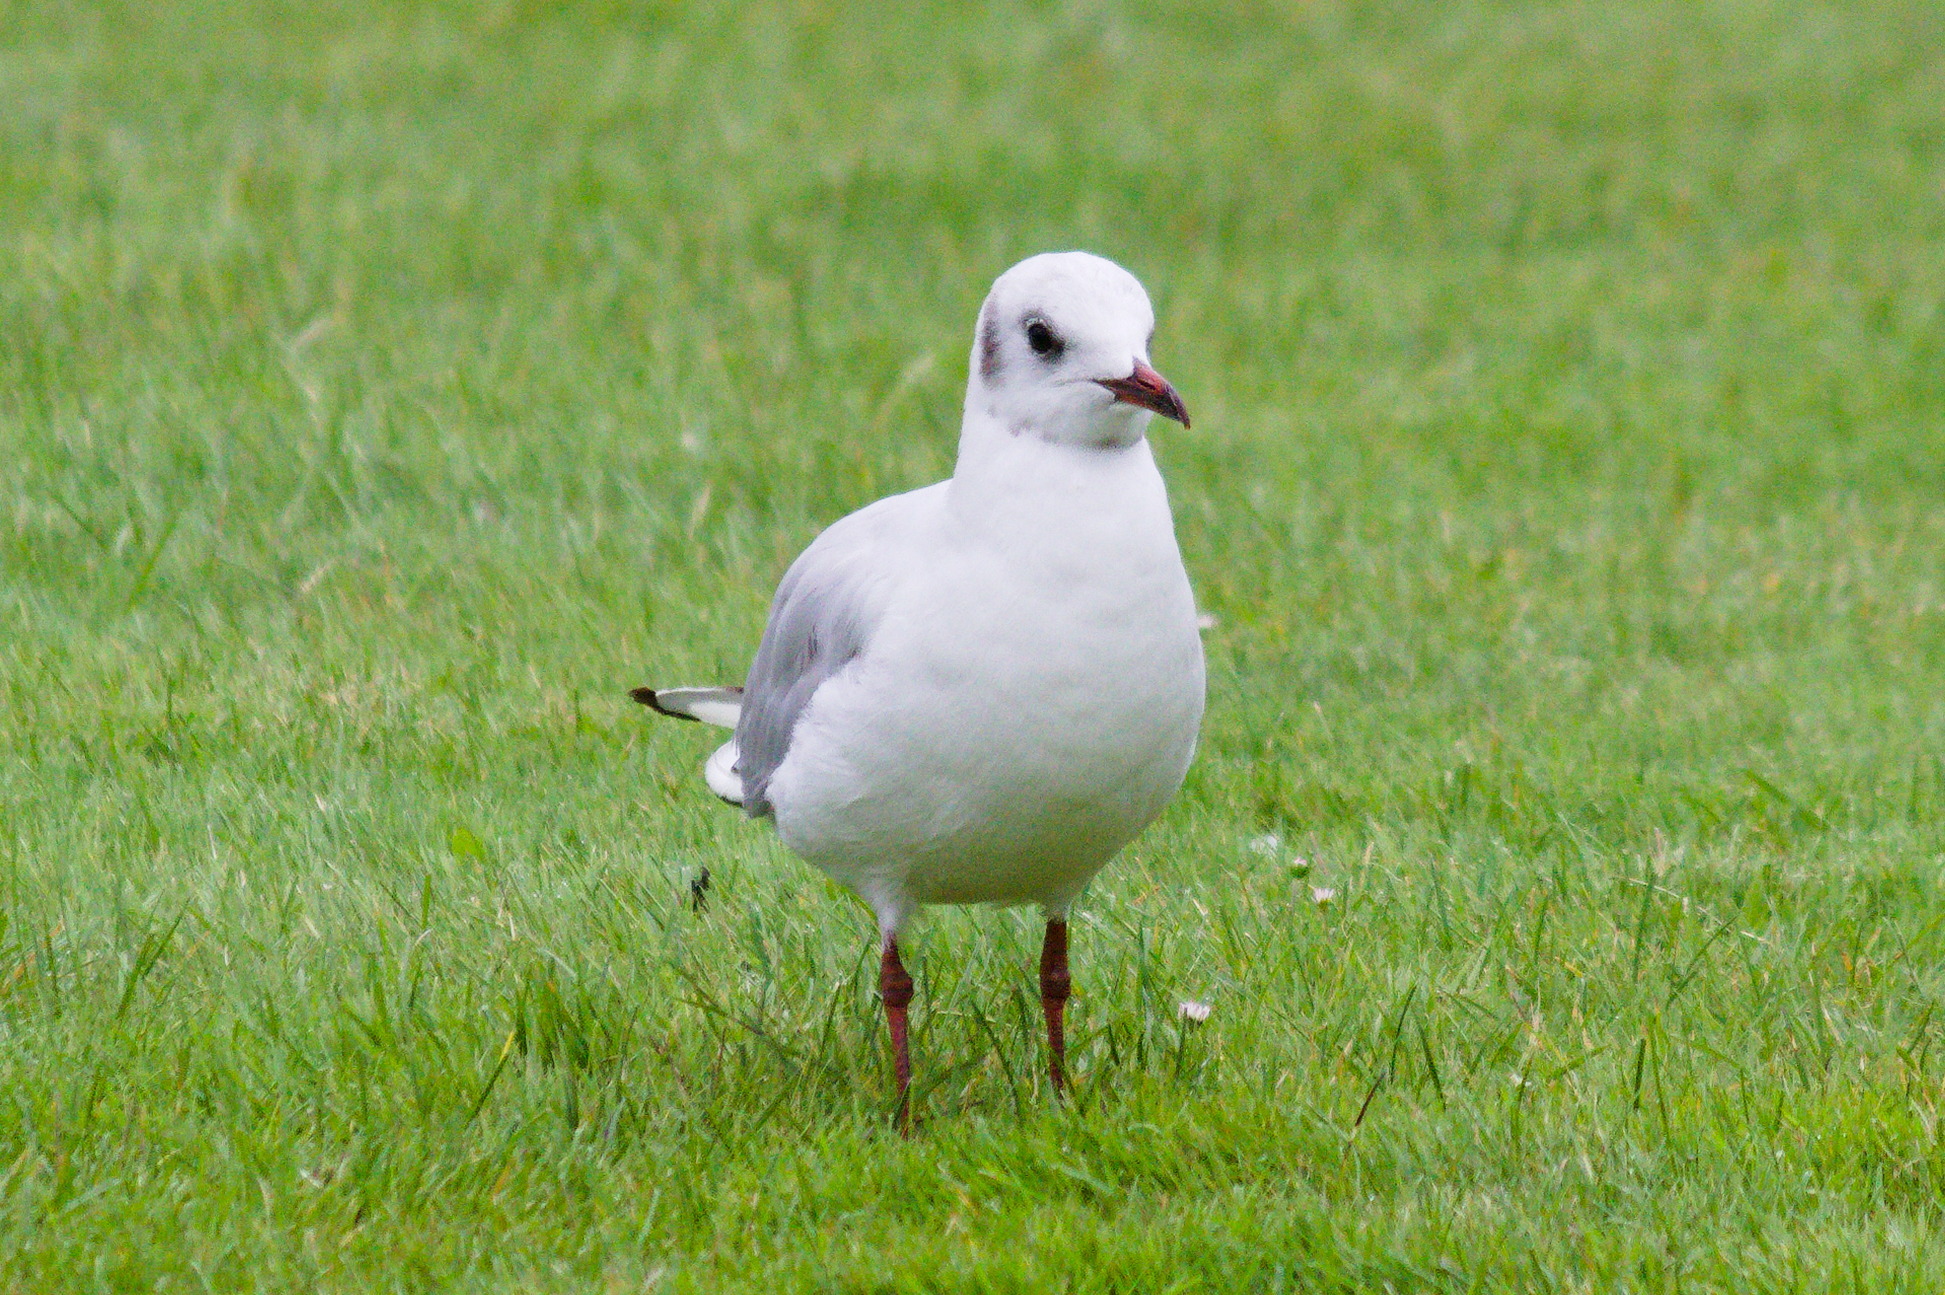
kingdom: Animalia
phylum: Chordata
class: Aves
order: Charadriiformes
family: Laridae
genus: Chroicocephalus
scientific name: Chroicocephalus ridibundus
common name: Black-headed gull
